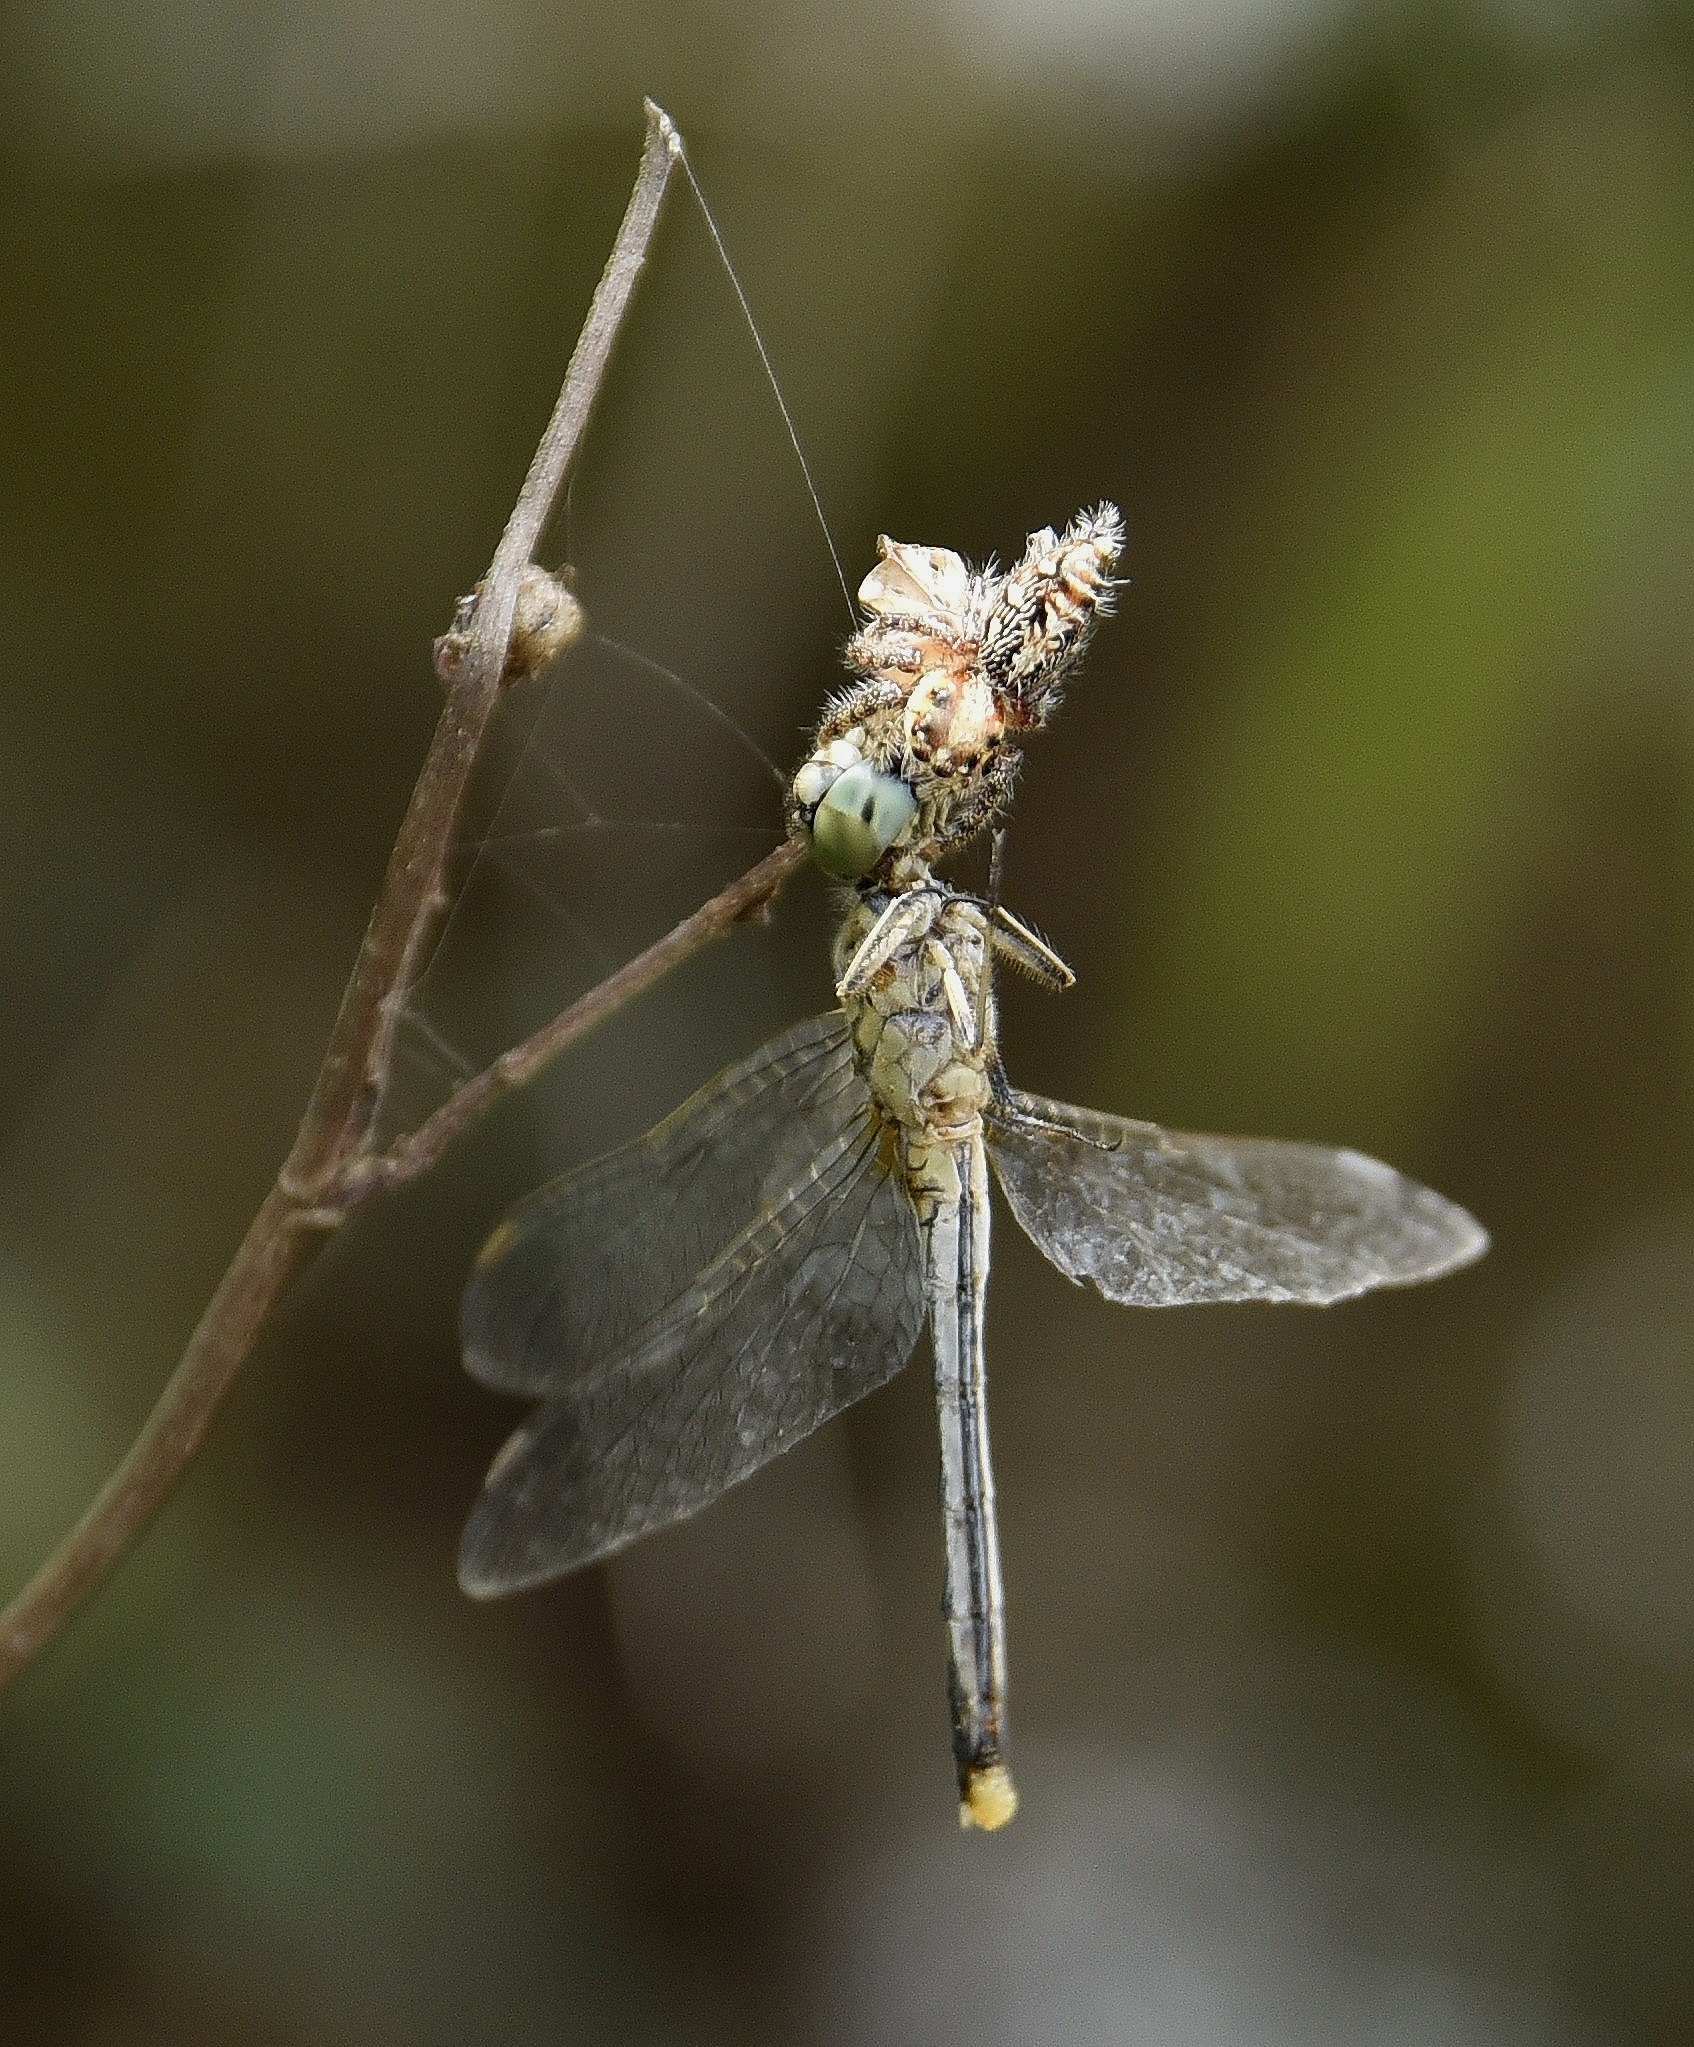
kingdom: Animalia
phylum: Arthropoda
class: Insecta
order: Odonata
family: Libellulidae
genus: Diplacodes
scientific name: Diplacodes trivialis
